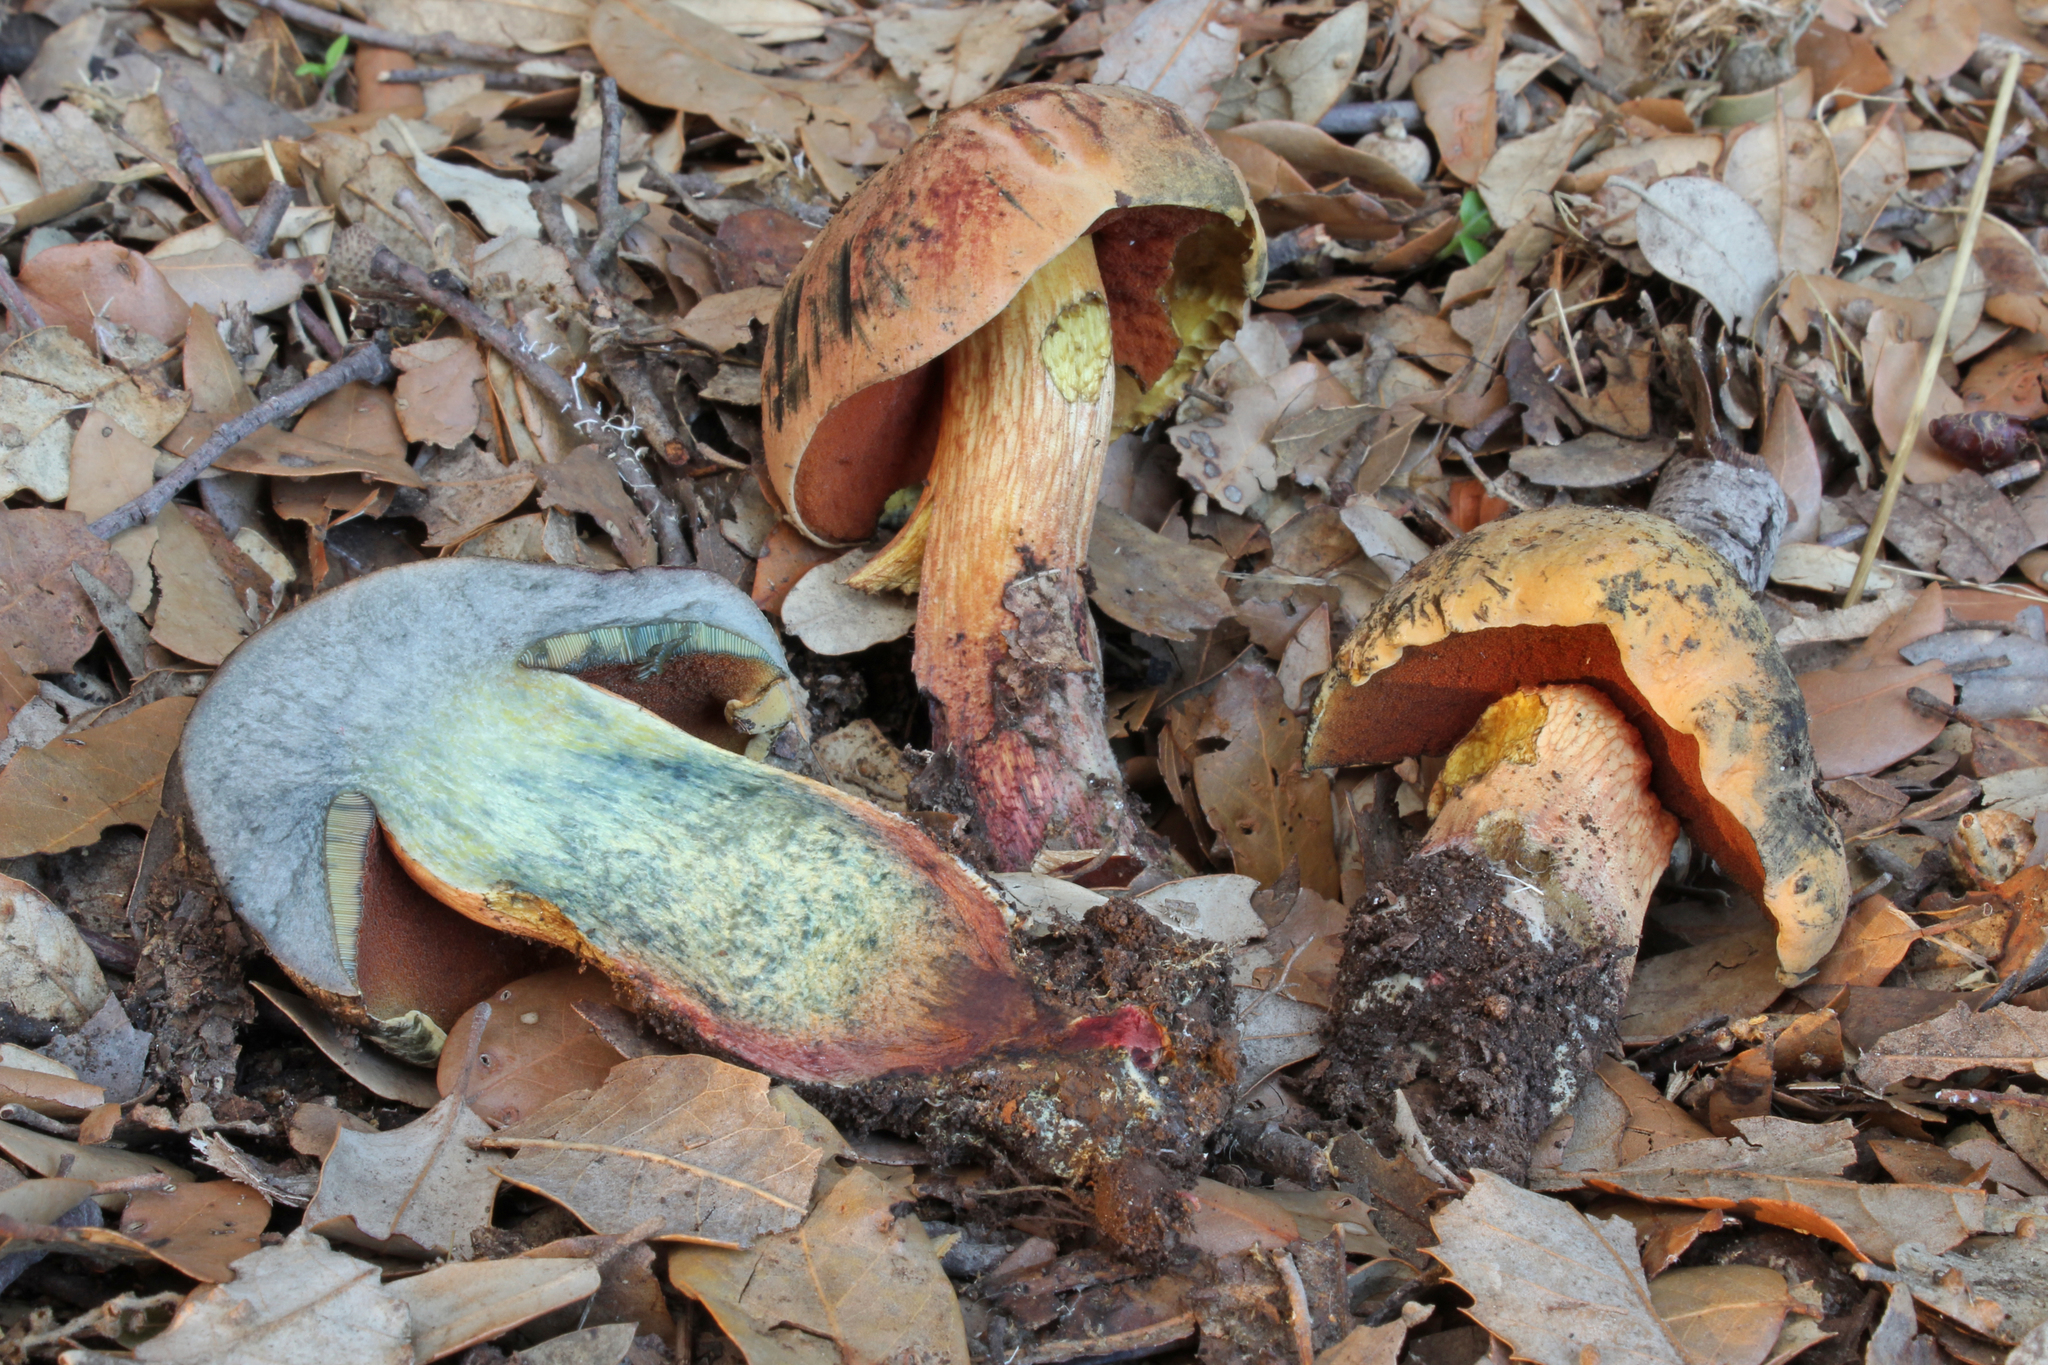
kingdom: Fungi
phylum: Basidiomycota
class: Agaricomycetes
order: Boletales
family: Boletaceae
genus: Suillellus
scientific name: Suillellus mendax
